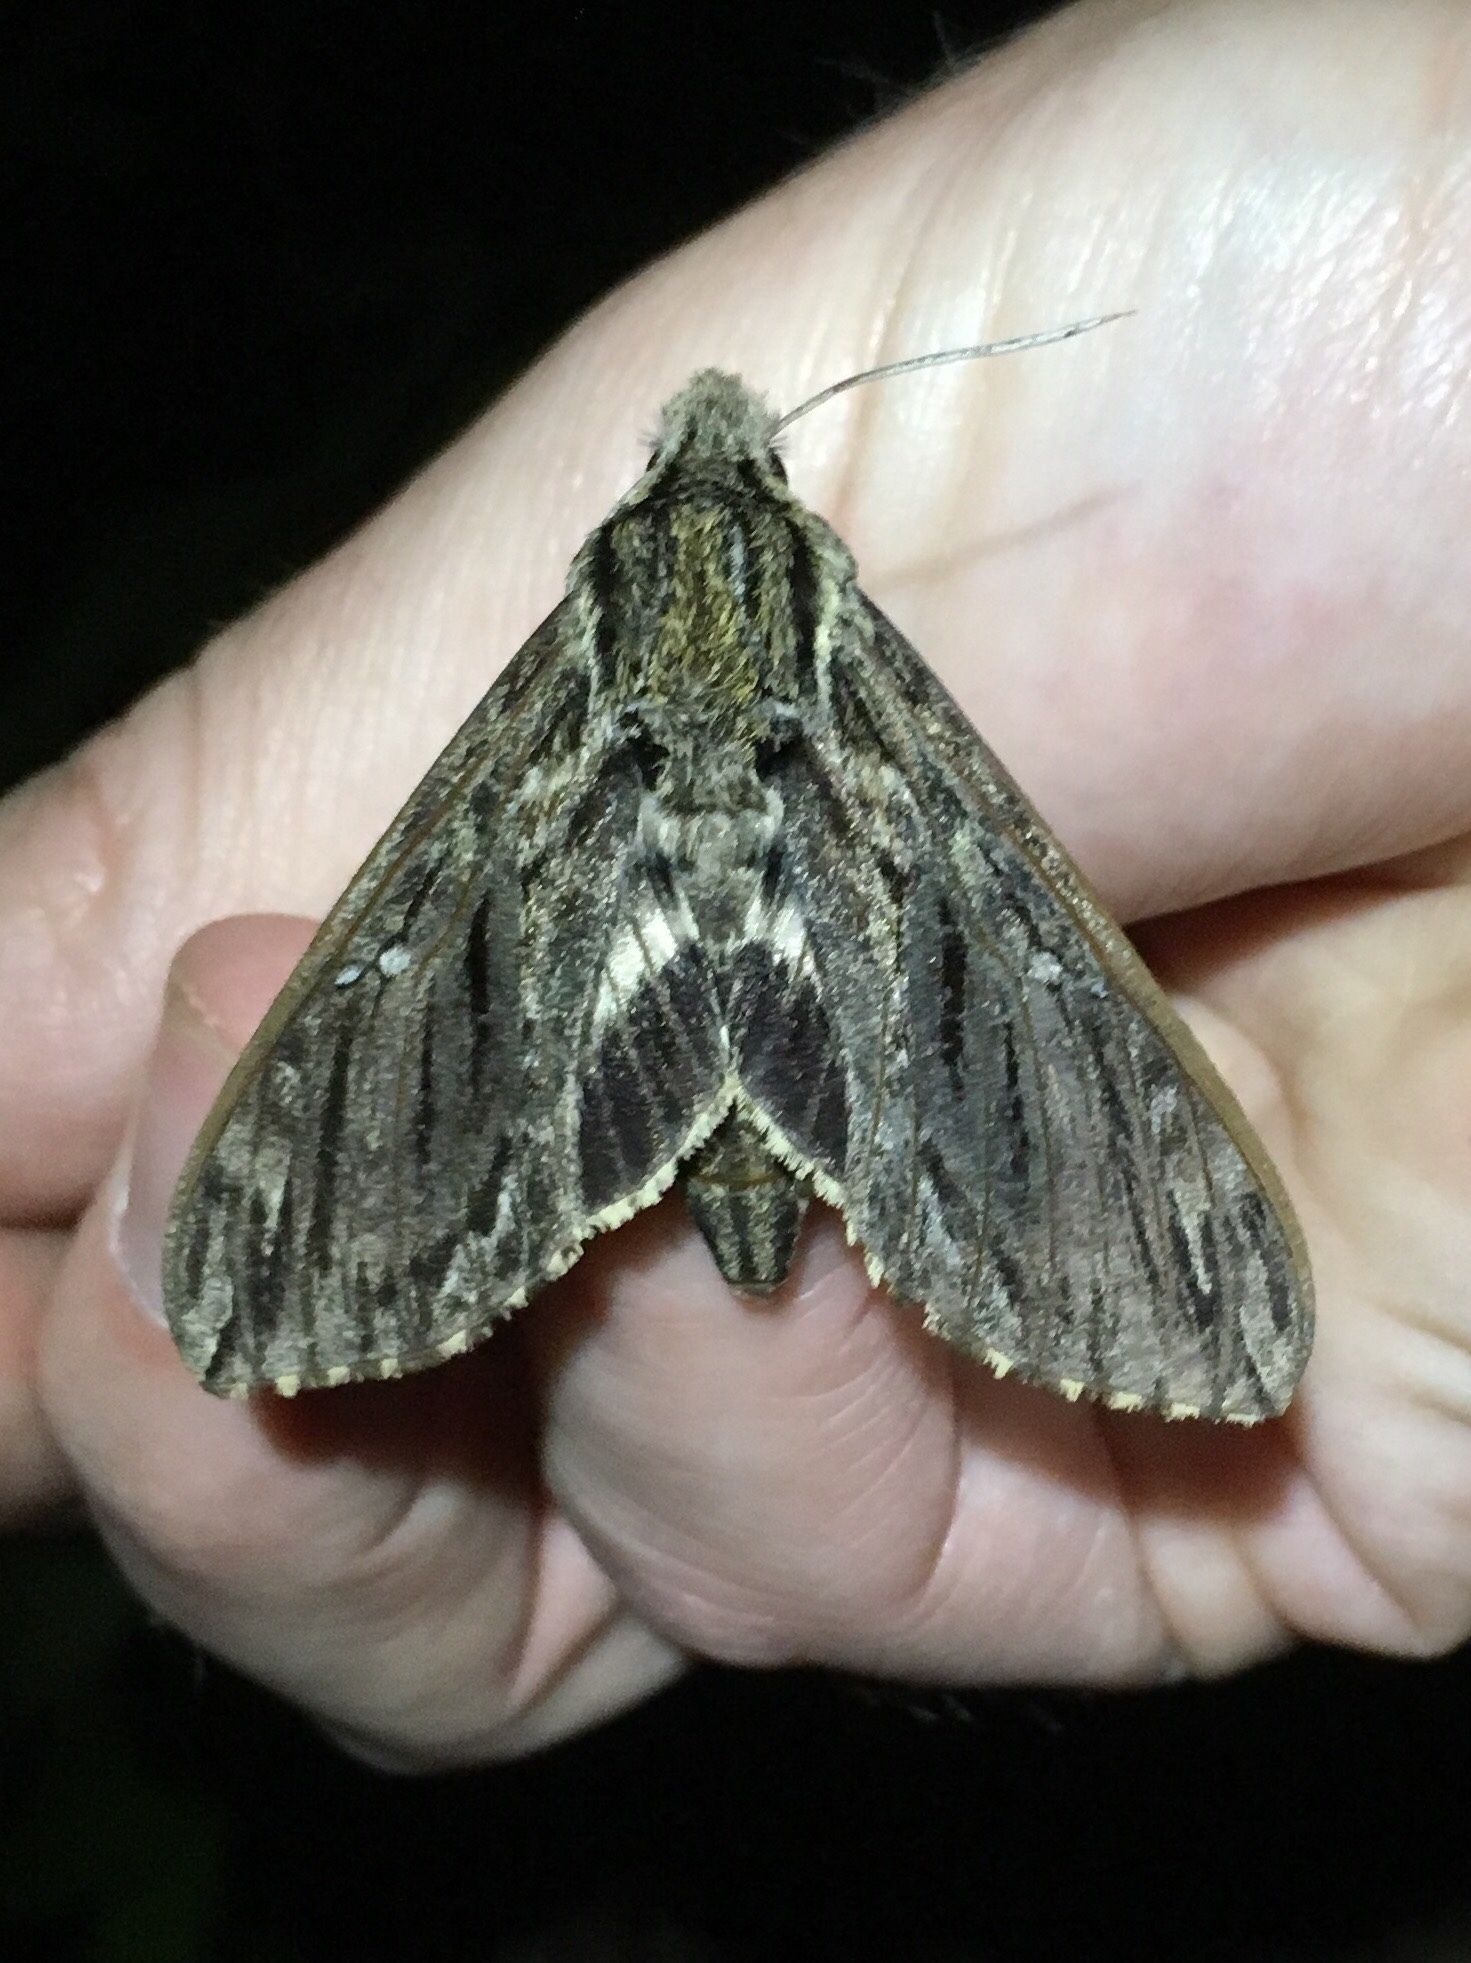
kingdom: Animalia
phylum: Arthropoda
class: Insecta
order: Lepidoptera
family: Sphingidae
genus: Lintneria
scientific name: Lintneria eremitus
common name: Hermit sphinx
